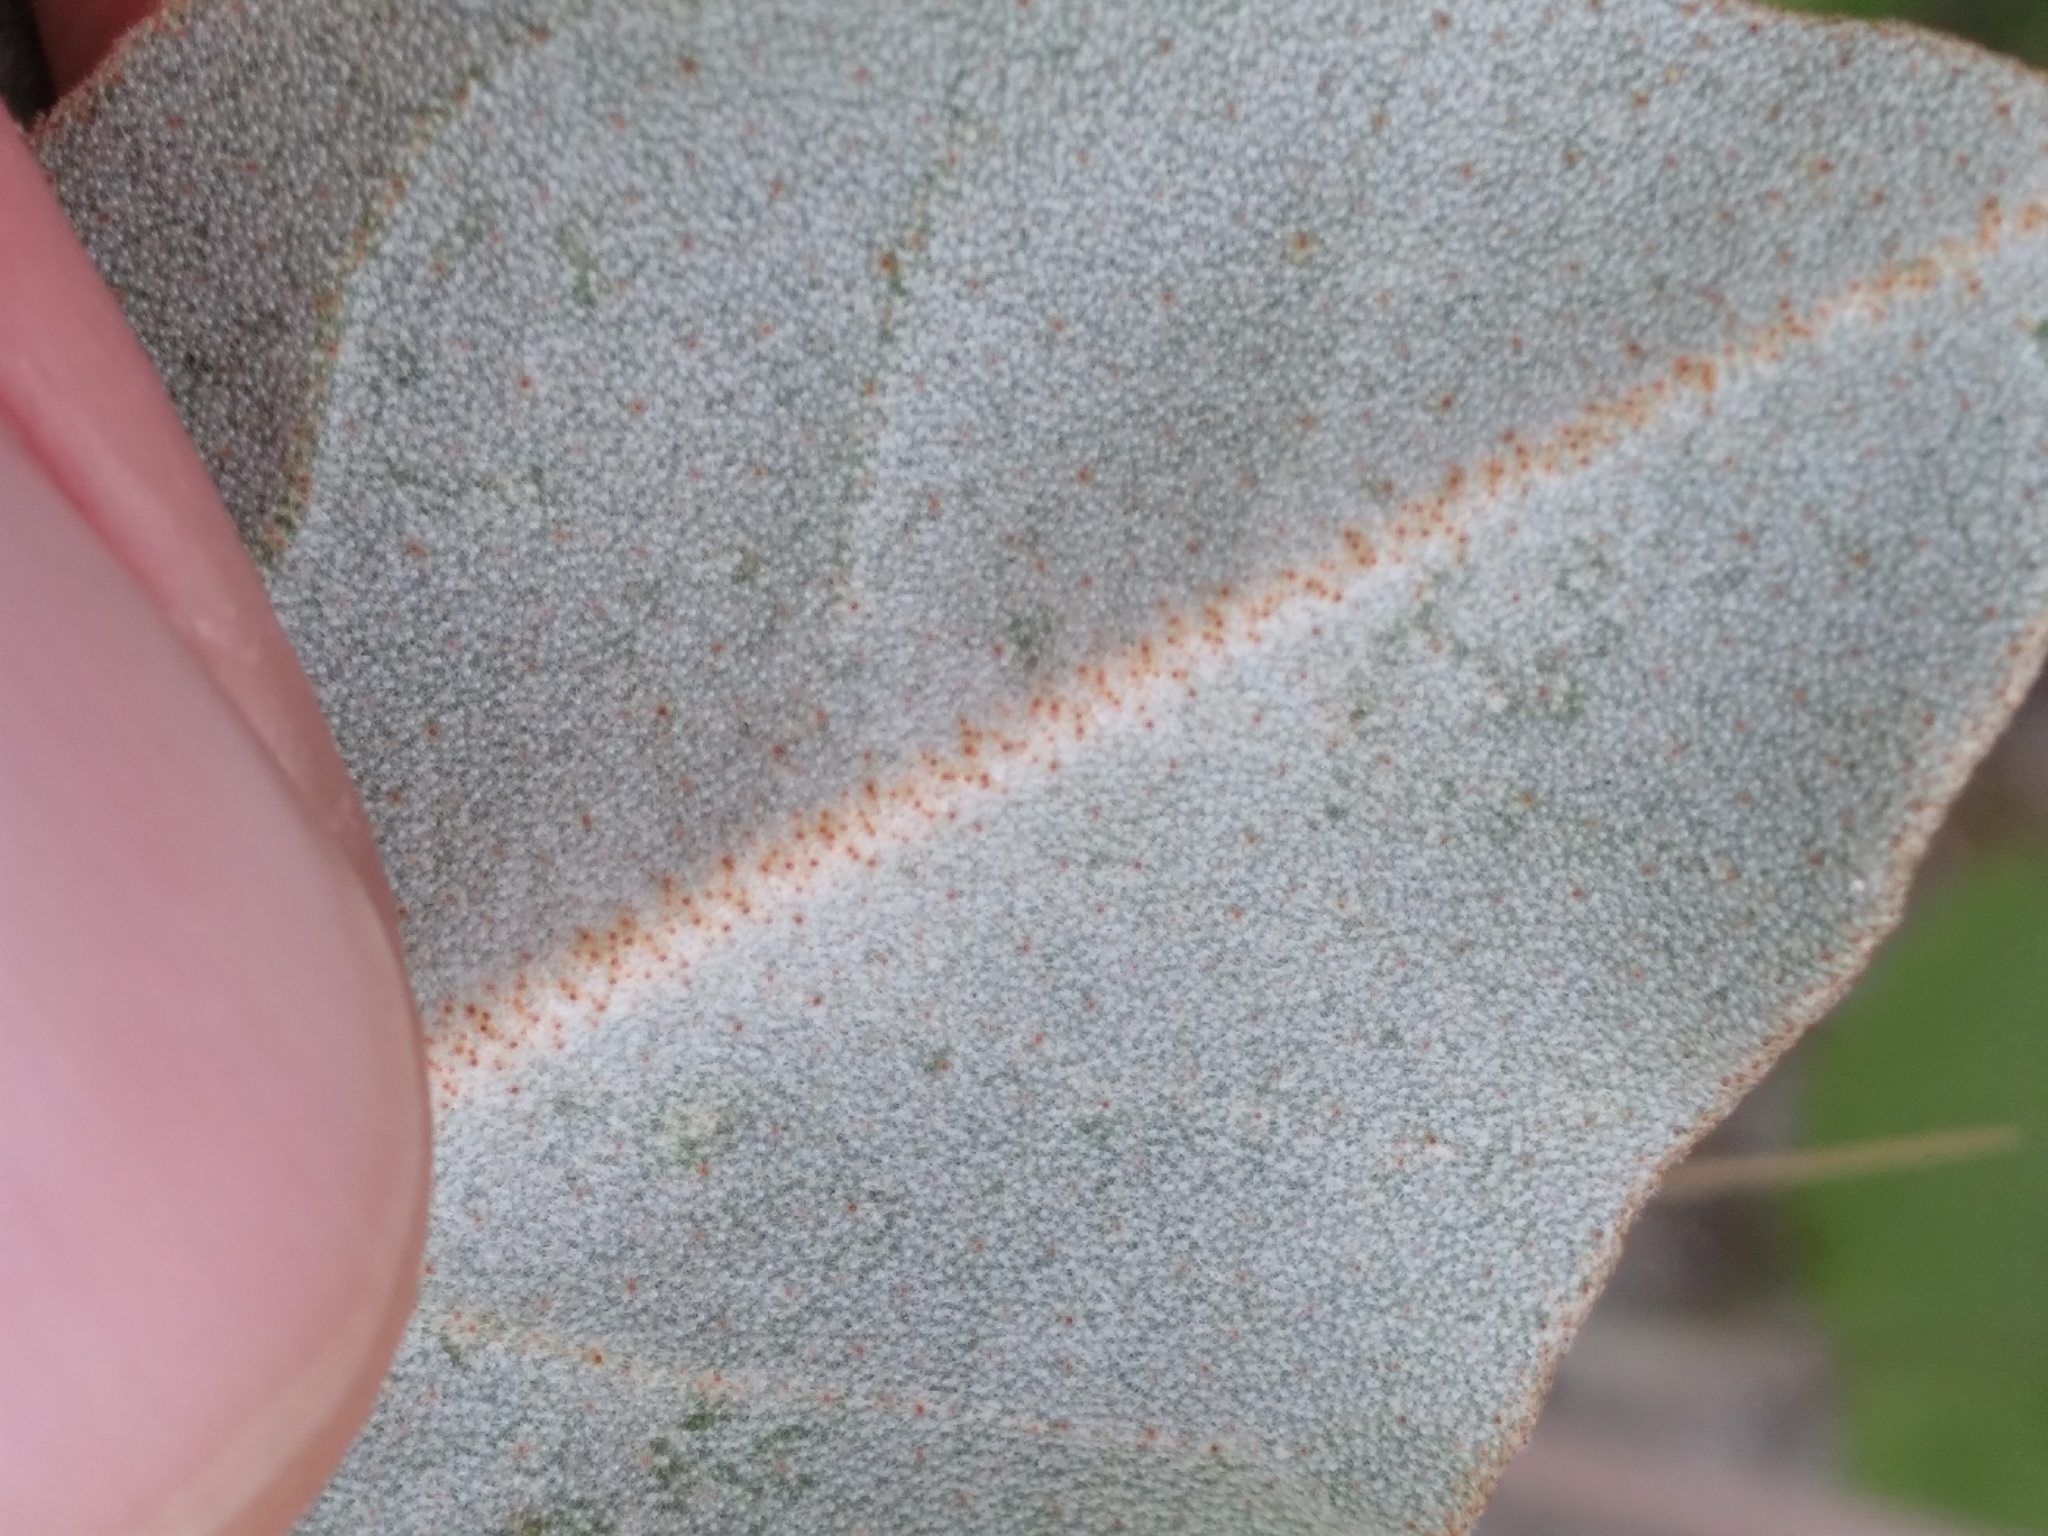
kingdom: Plantae
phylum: Tracheophyta
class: Magnoliopsida
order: Malpighiales
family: Euphorbiaceae
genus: Croton
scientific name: Croton punctatus
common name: Beach-tea
